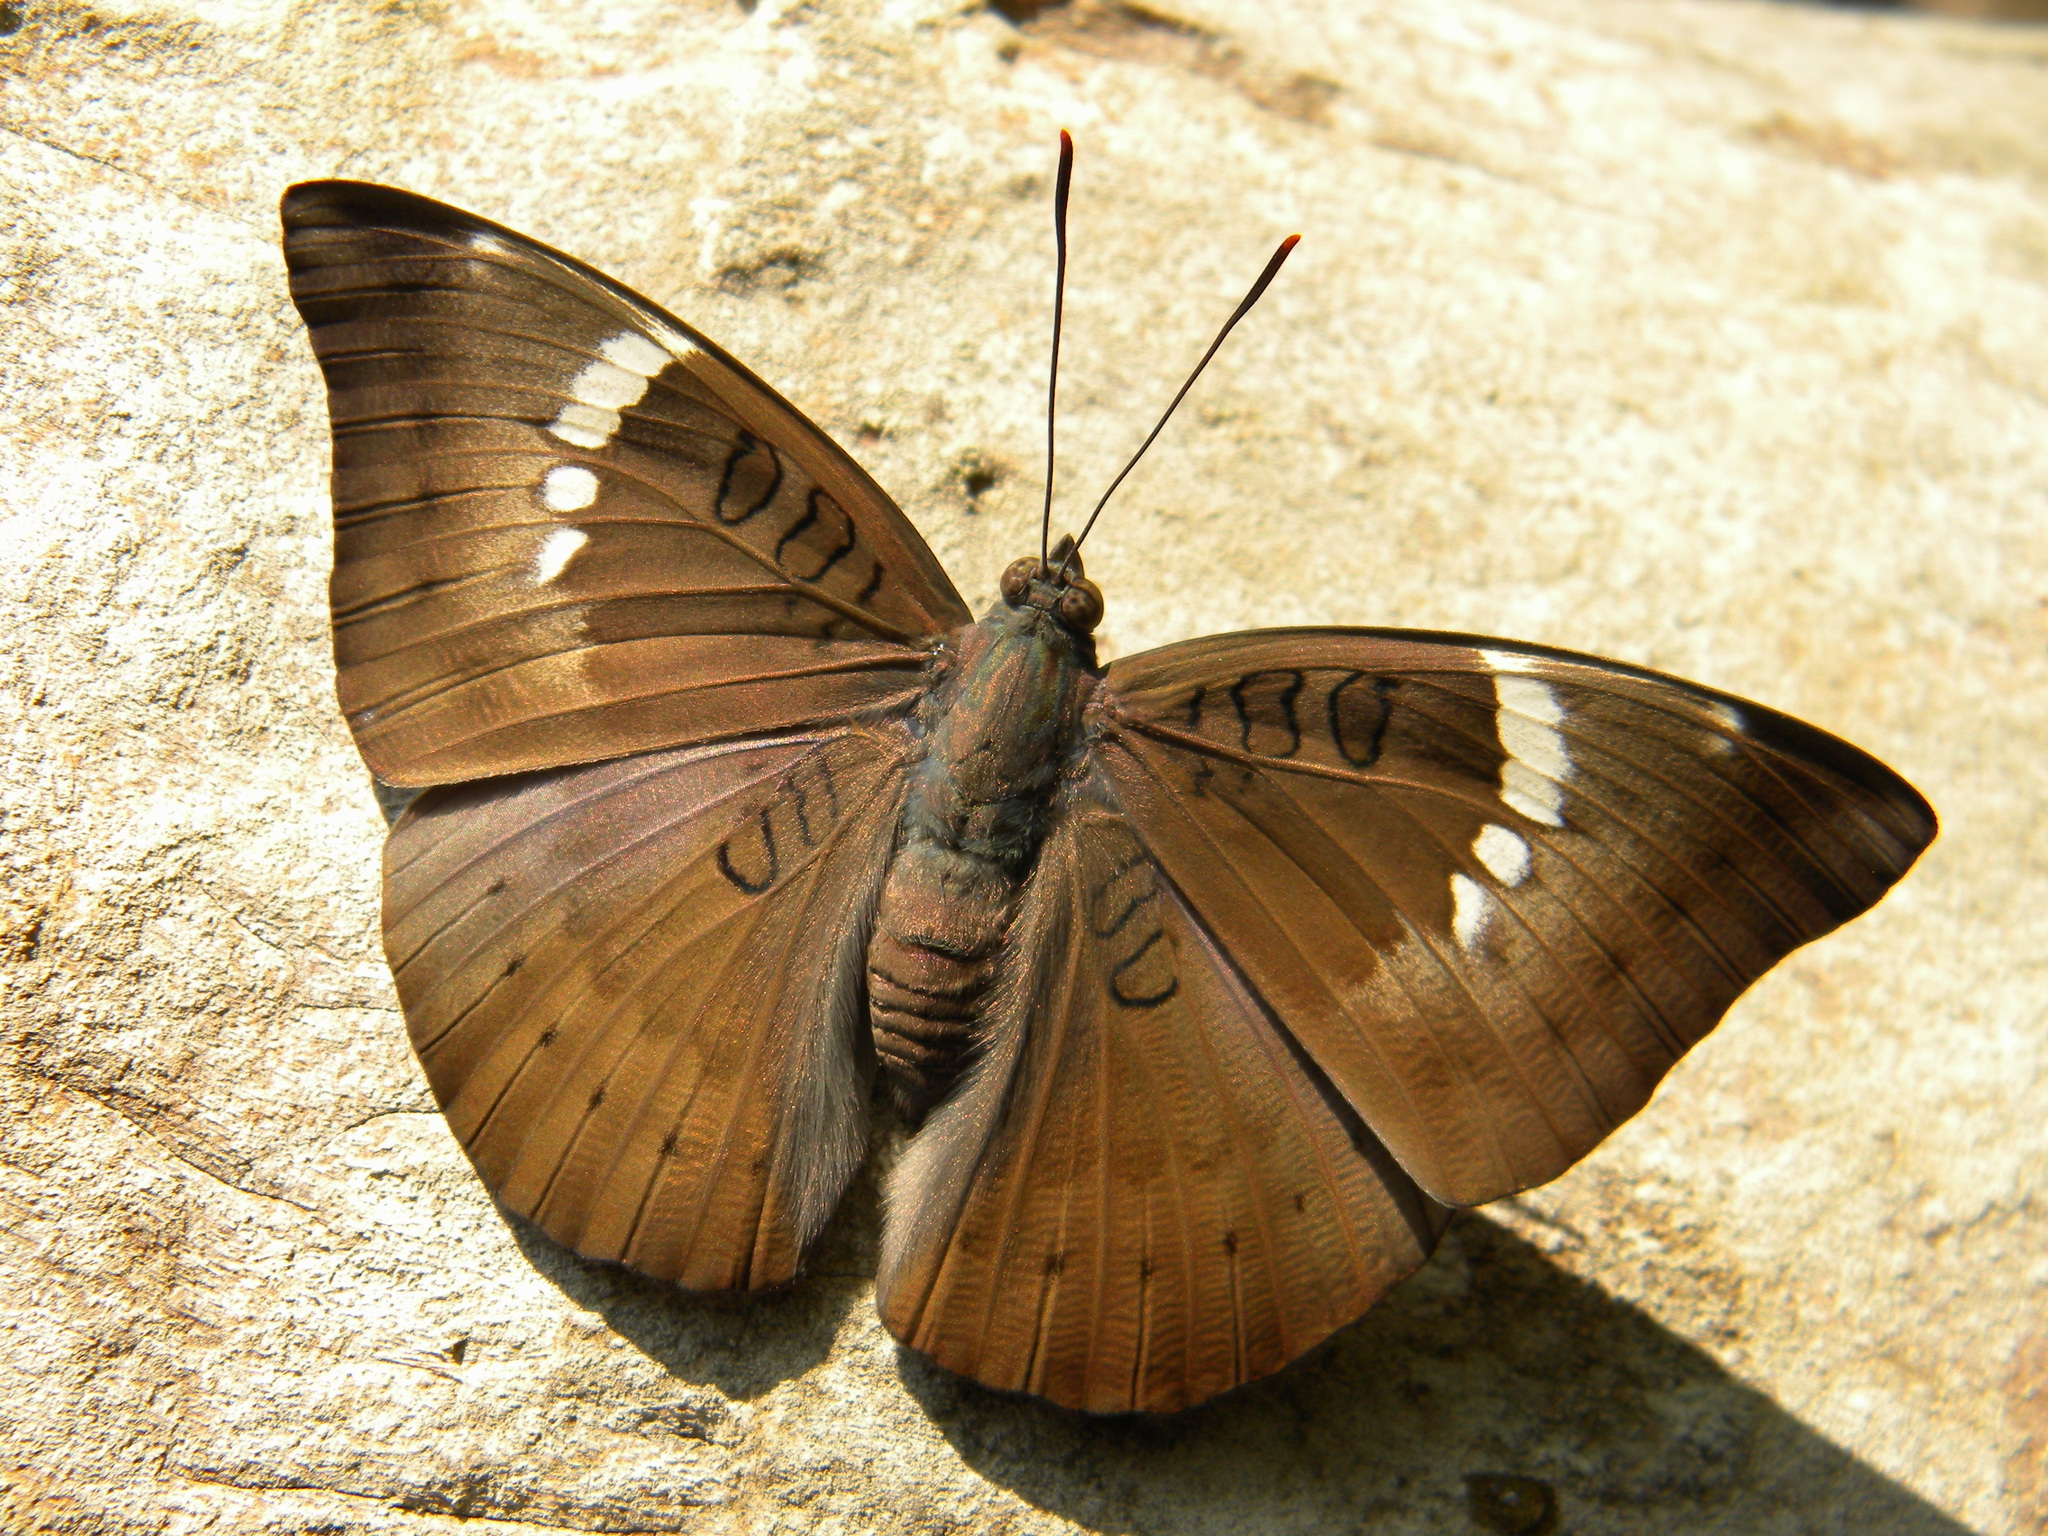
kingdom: Animalia
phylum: Arthropoda
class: Insecta
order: Lepidoptera
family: Nymphalidae
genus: Euthalia
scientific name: Euthalia aconthea
